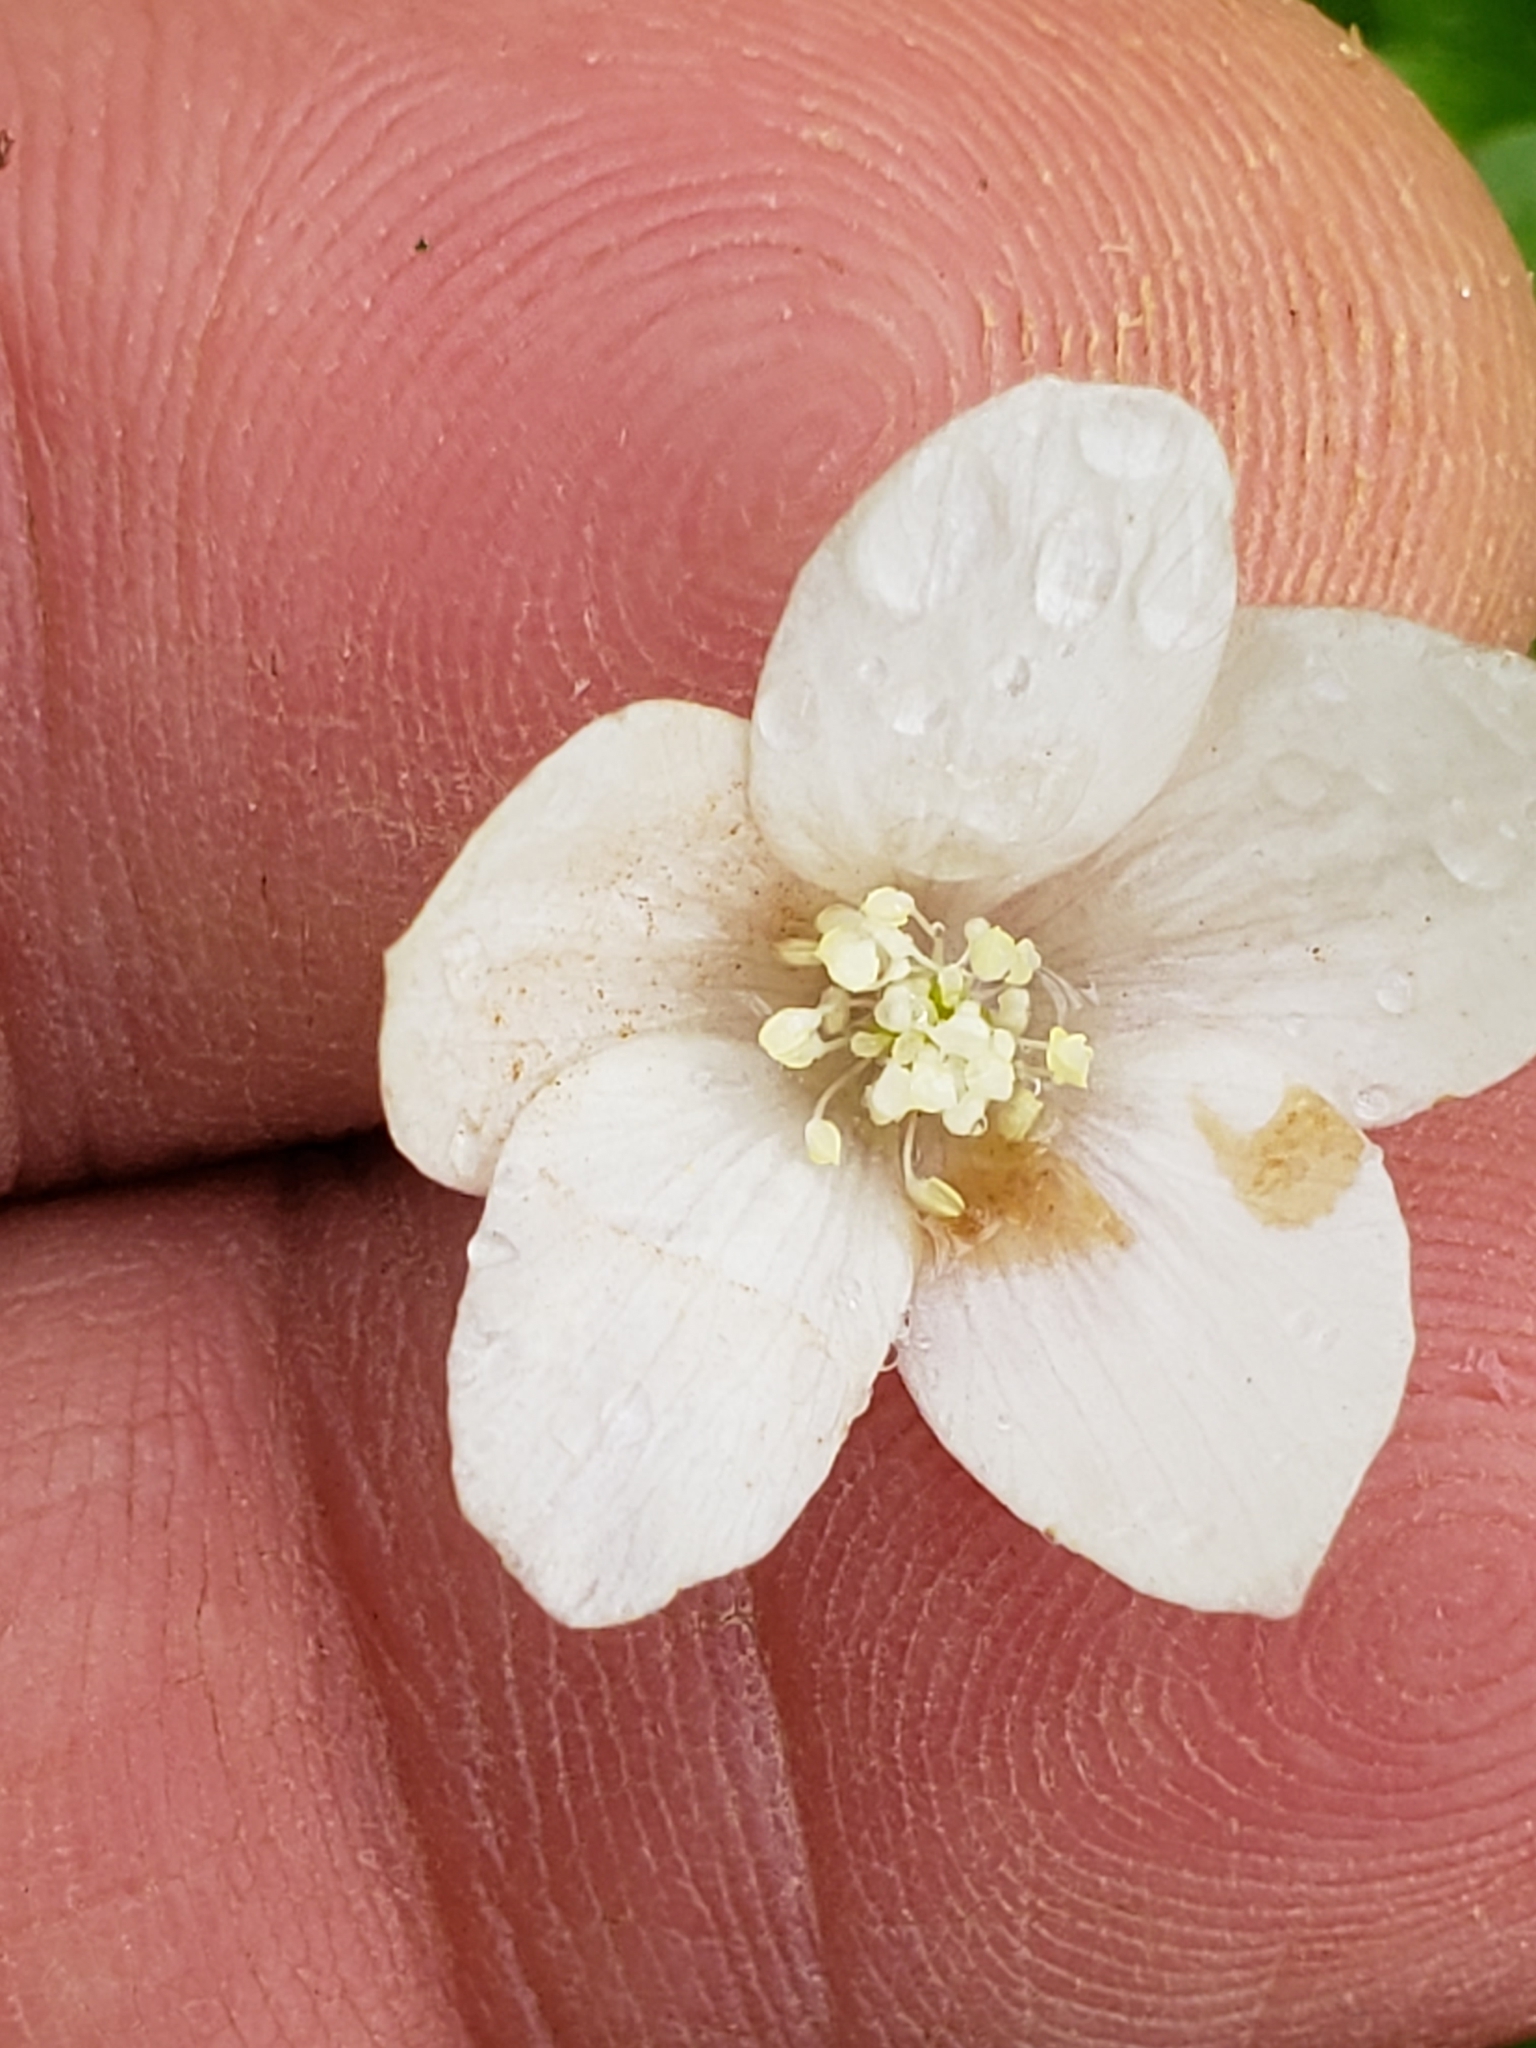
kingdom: Plantae
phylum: Tracheophyta
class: Magnoliopsida
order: Ranunculales
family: Ranunculaceae
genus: Anemone
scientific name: Anemone quinquefolia
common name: Wood anemone
